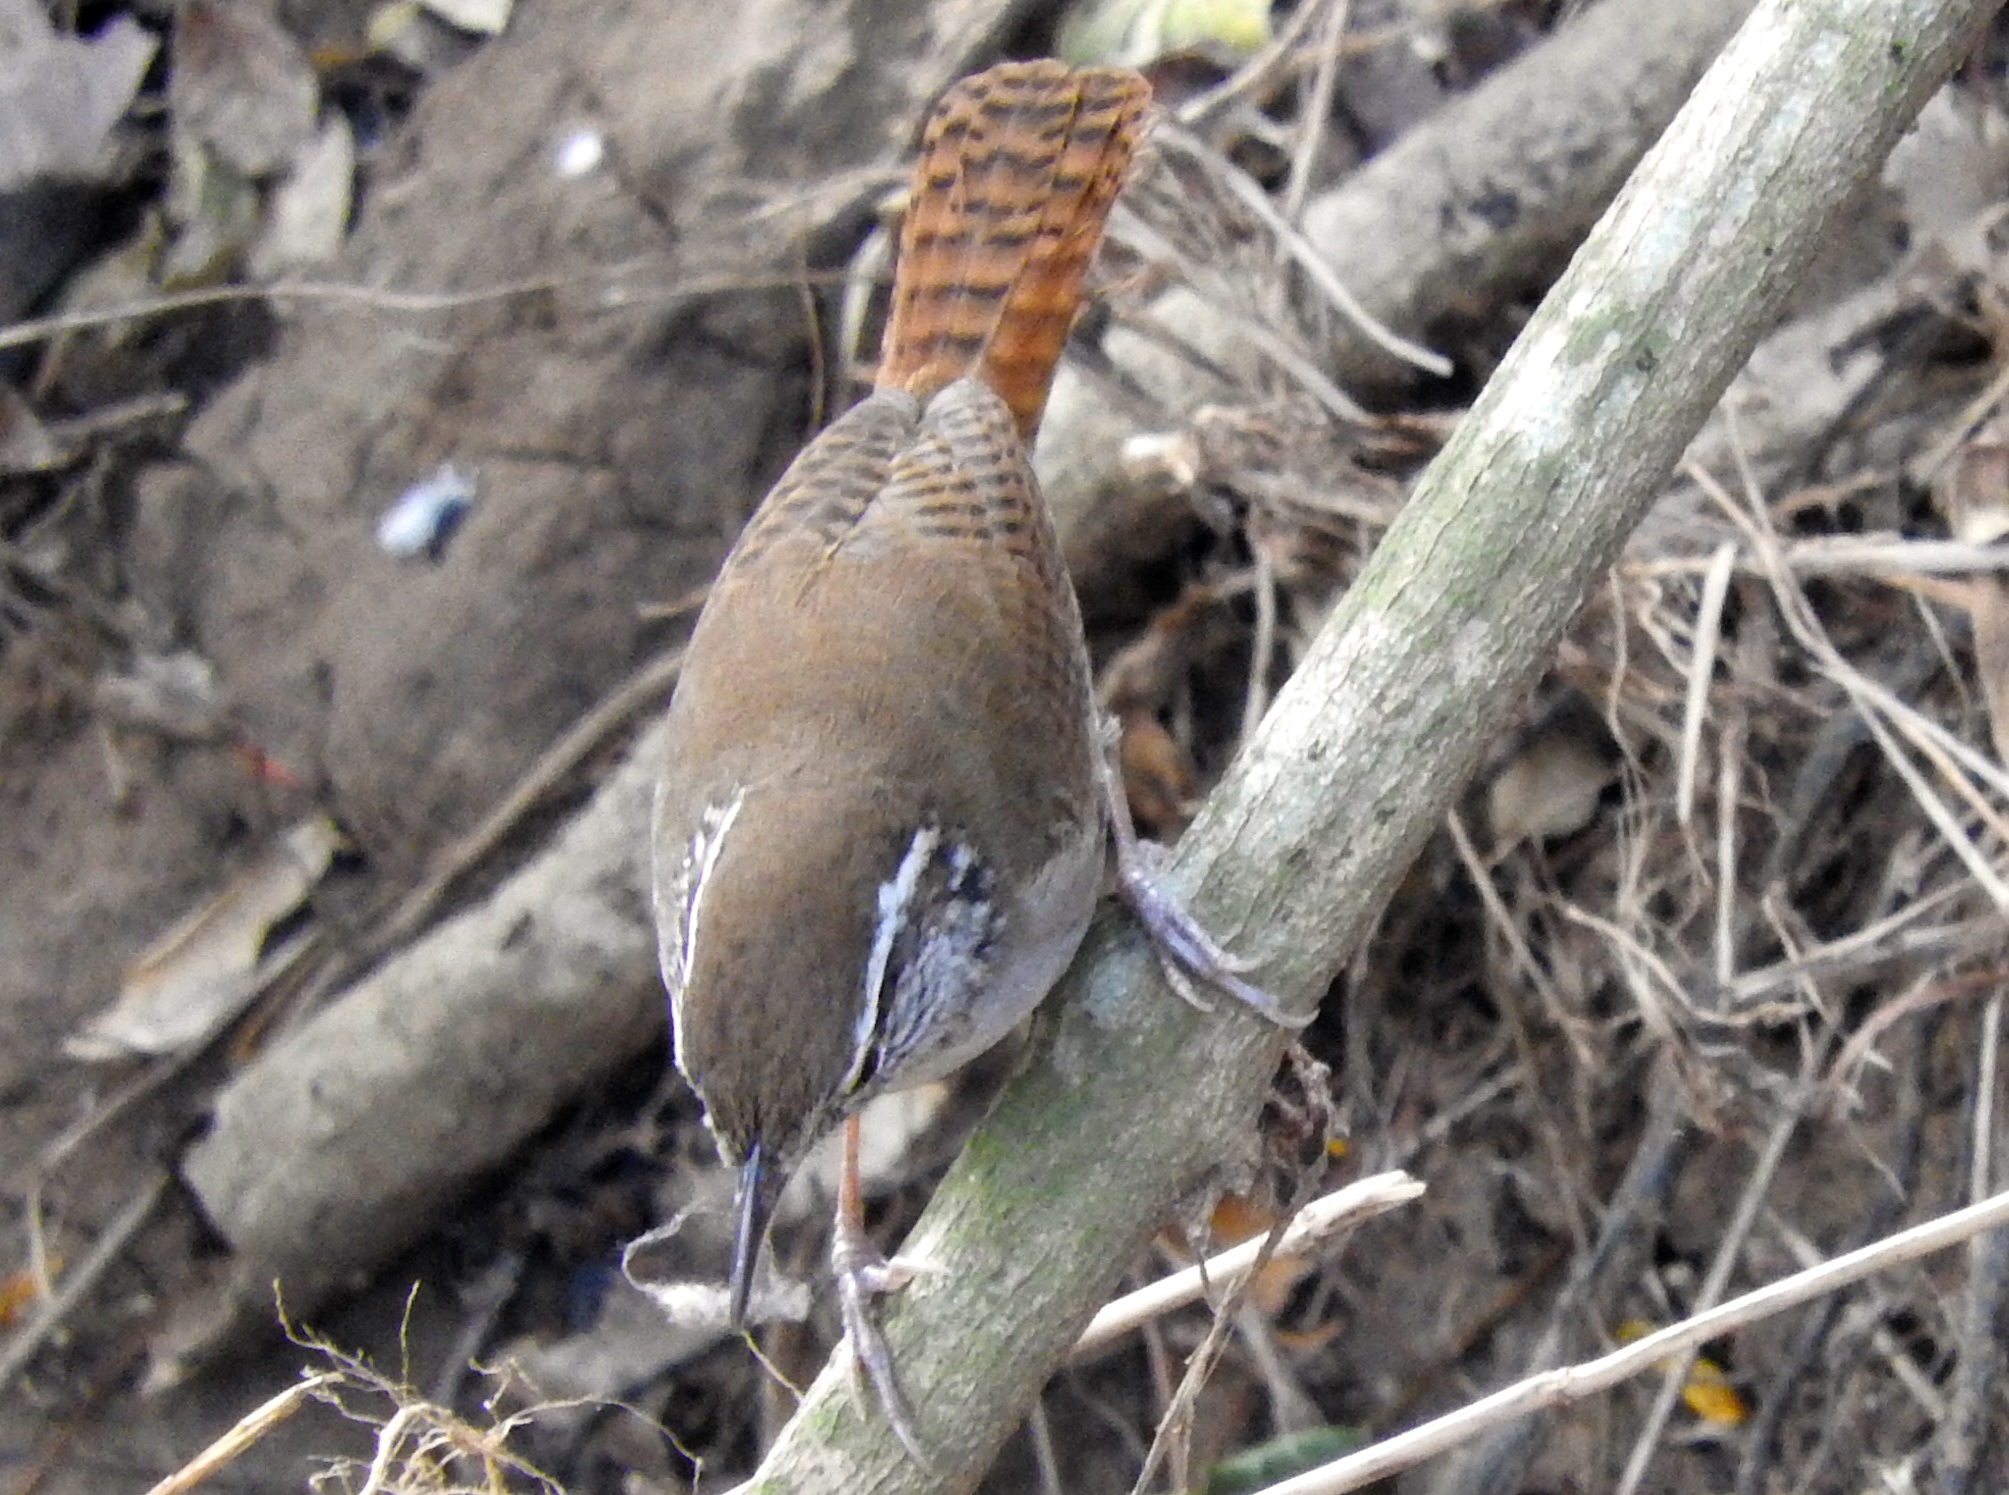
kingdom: Animalia
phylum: Chordata
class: Aves
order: Passeriformes
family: Troglodytidae
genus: Thryophilus
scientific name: Thryophilus sinaloa
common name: Sinaloa wren
